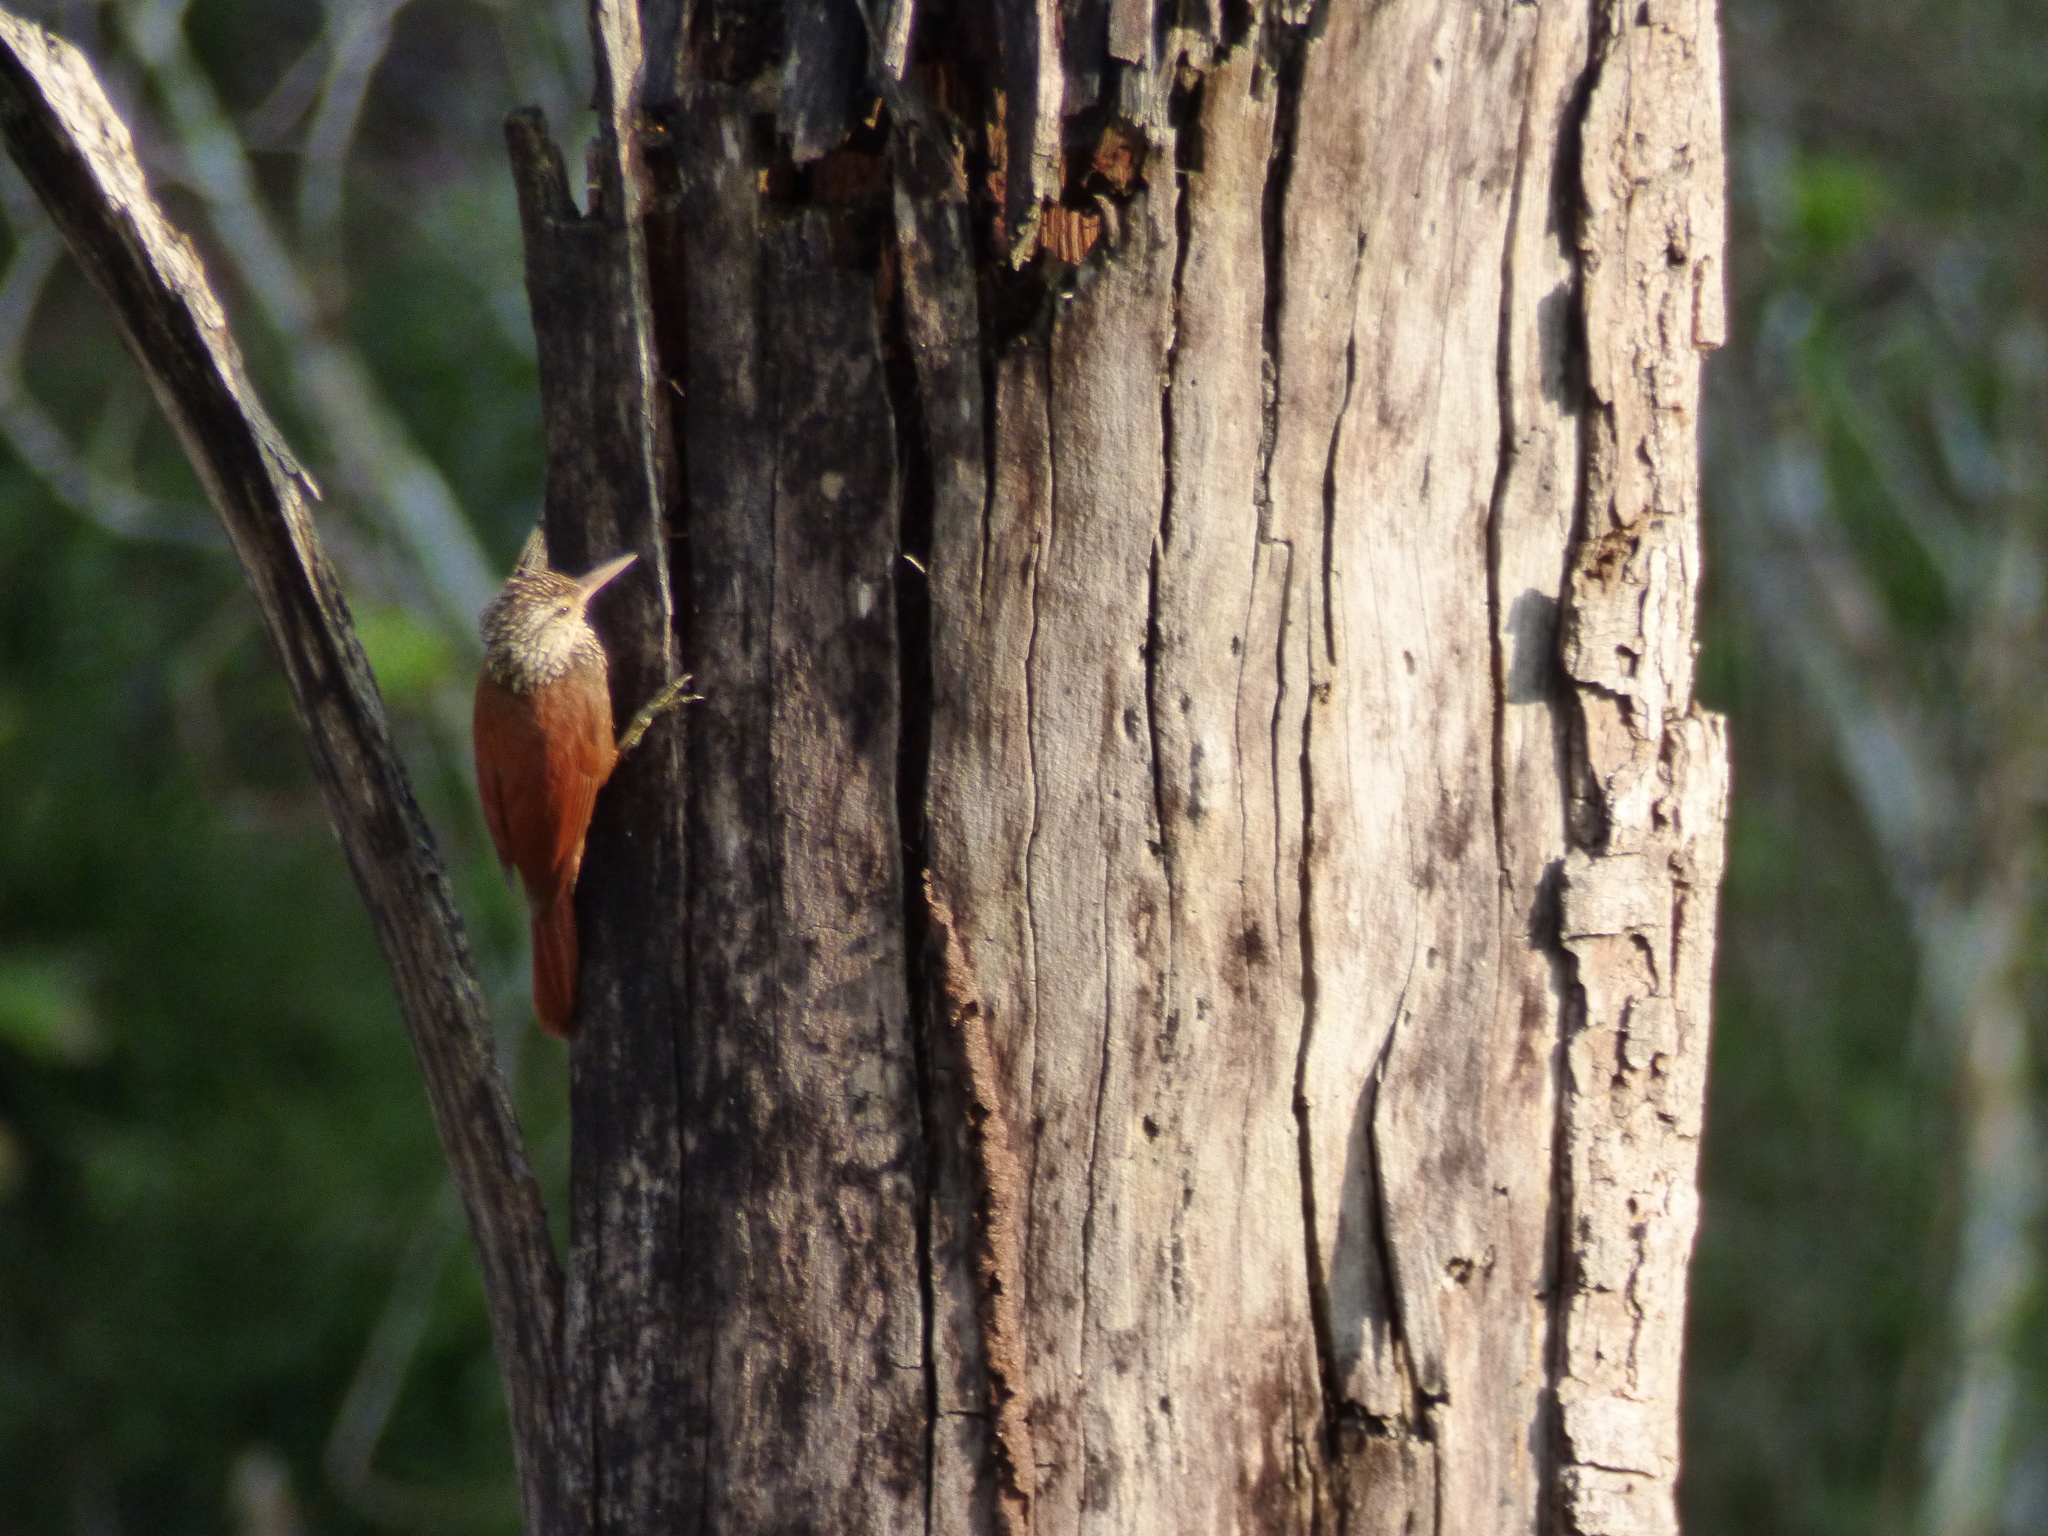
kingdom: Animalia
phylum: Chordata
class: Aves
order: Passeriformes
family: Furnariidae
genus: Xiphorhynchus
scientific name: Xiphorhynchus picus
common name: Straight-billed woodcreeper
